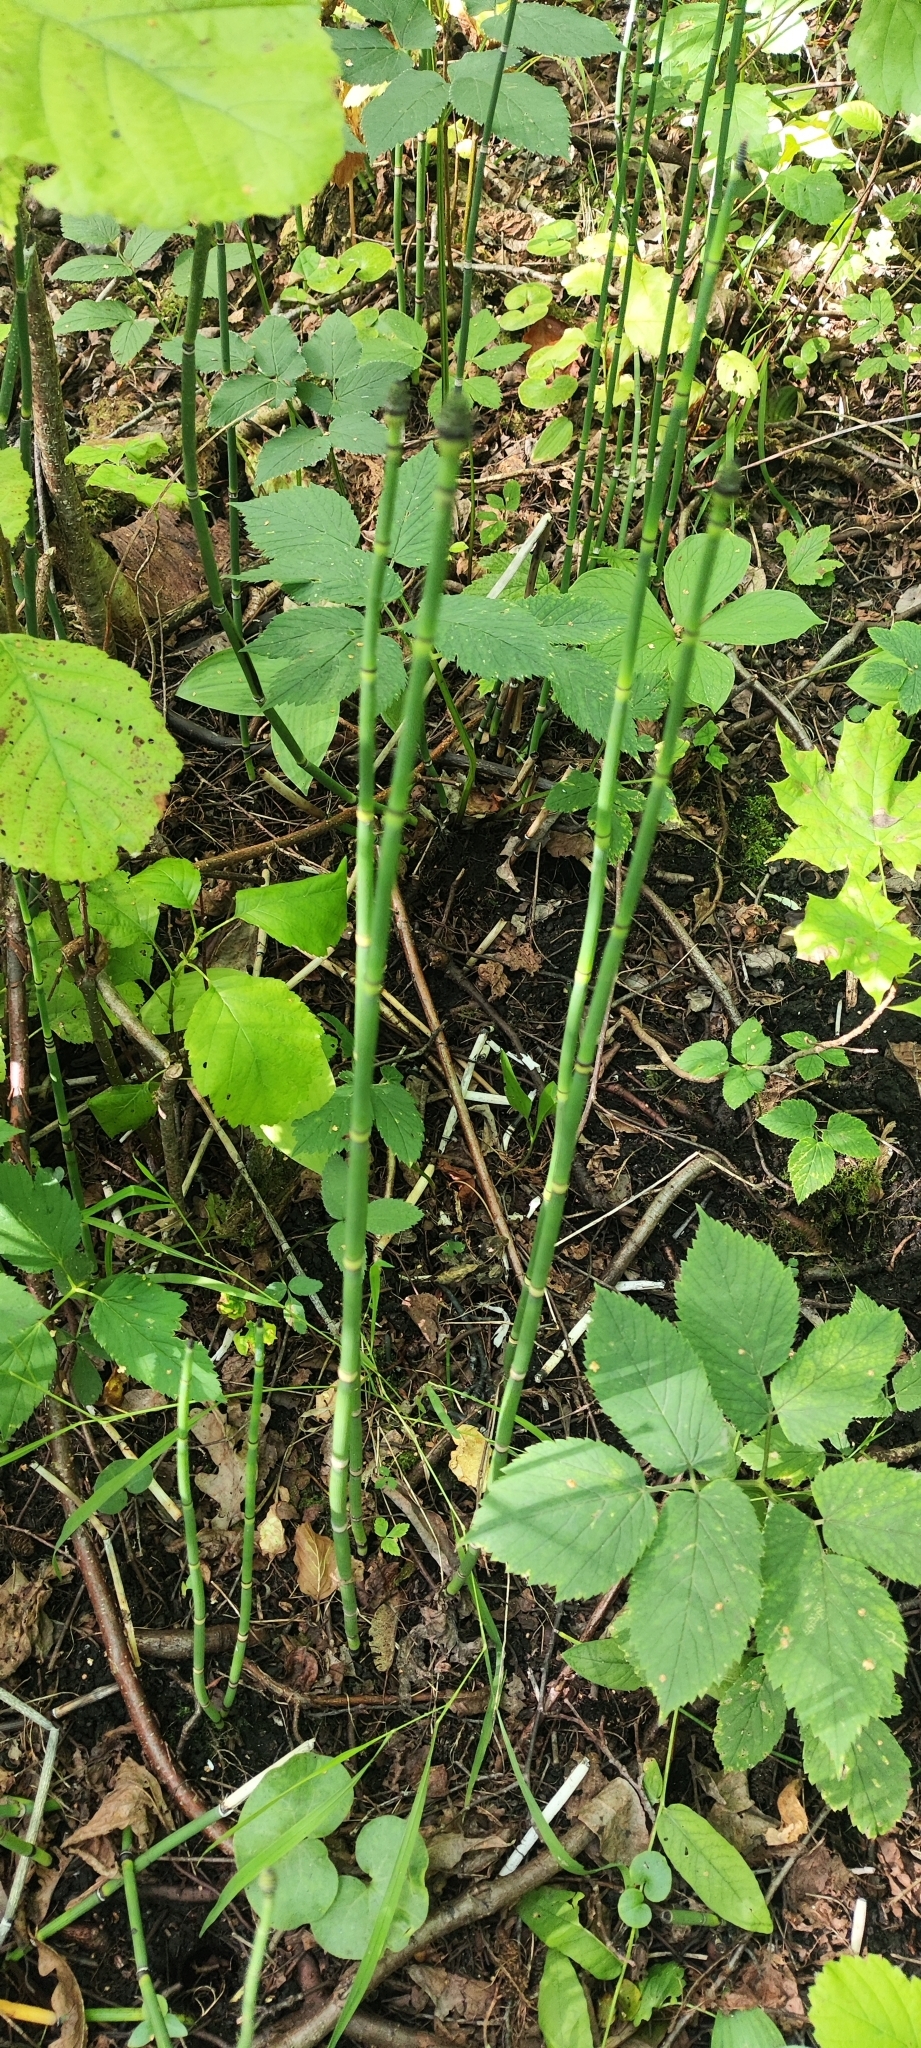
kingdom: Plantae
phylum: Tracheophyta
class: Polypodiopsida
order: Equisetales
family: Equisetaceae
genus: Equisetum
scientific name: Equisetum hyemale
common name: Rough horsetail
